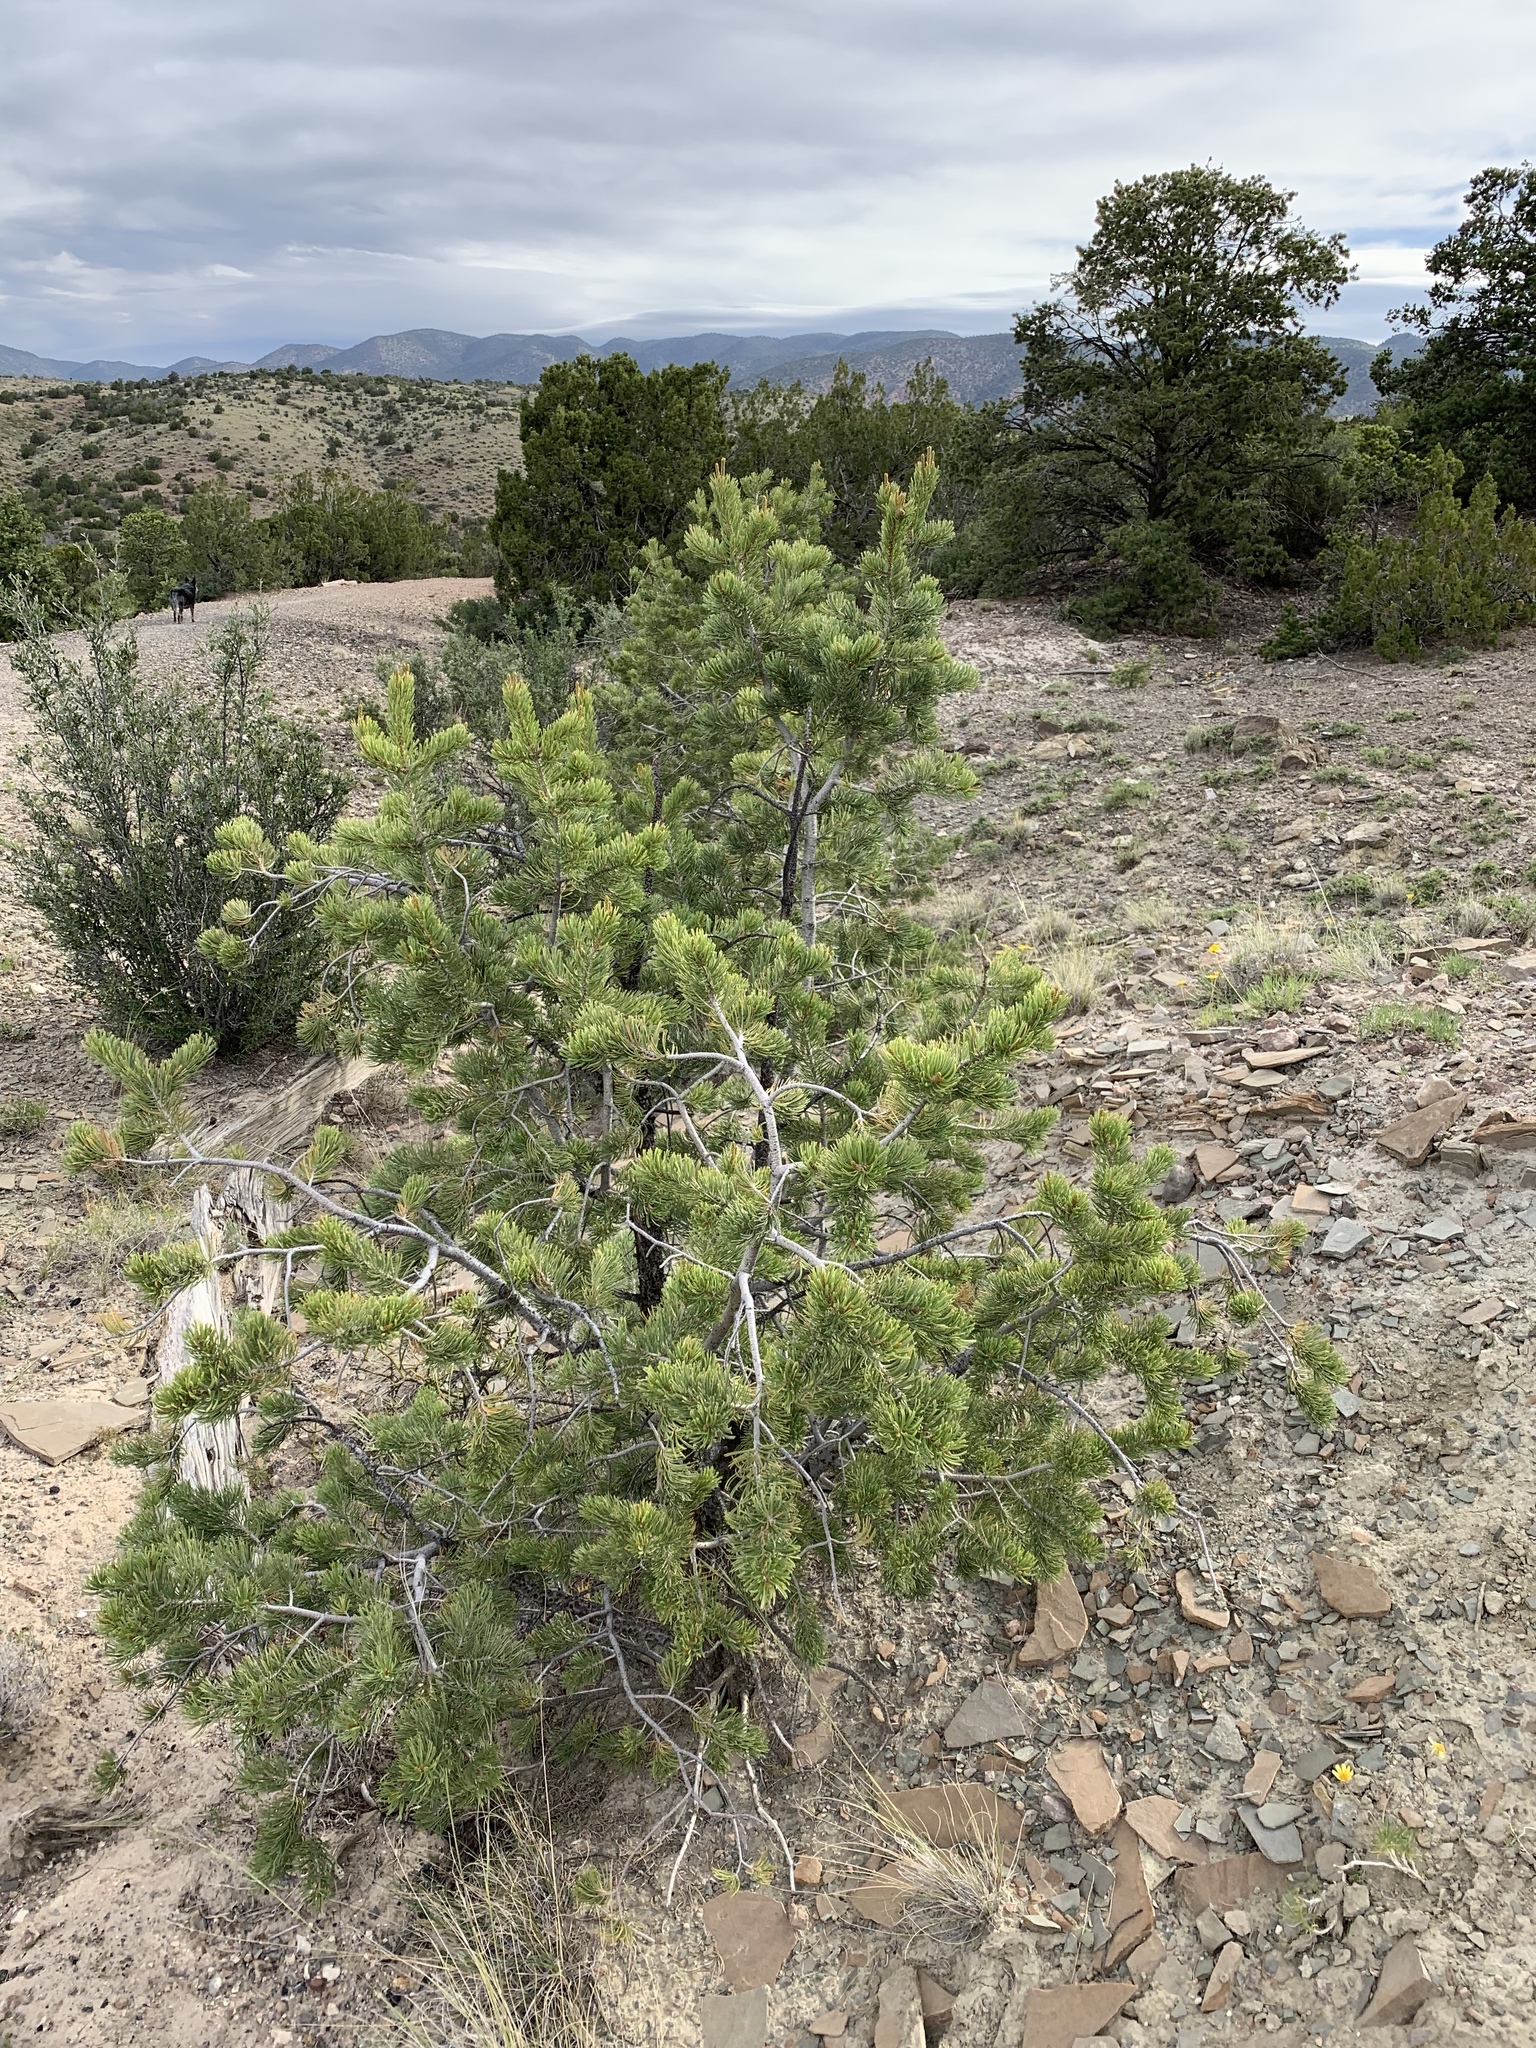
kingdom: Plantae
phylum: Tracheophyta
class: Pinopsida
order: Pinales
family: Pinaceae
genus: Pinus
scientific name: Pinus edulis
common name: Colorado pinyon
